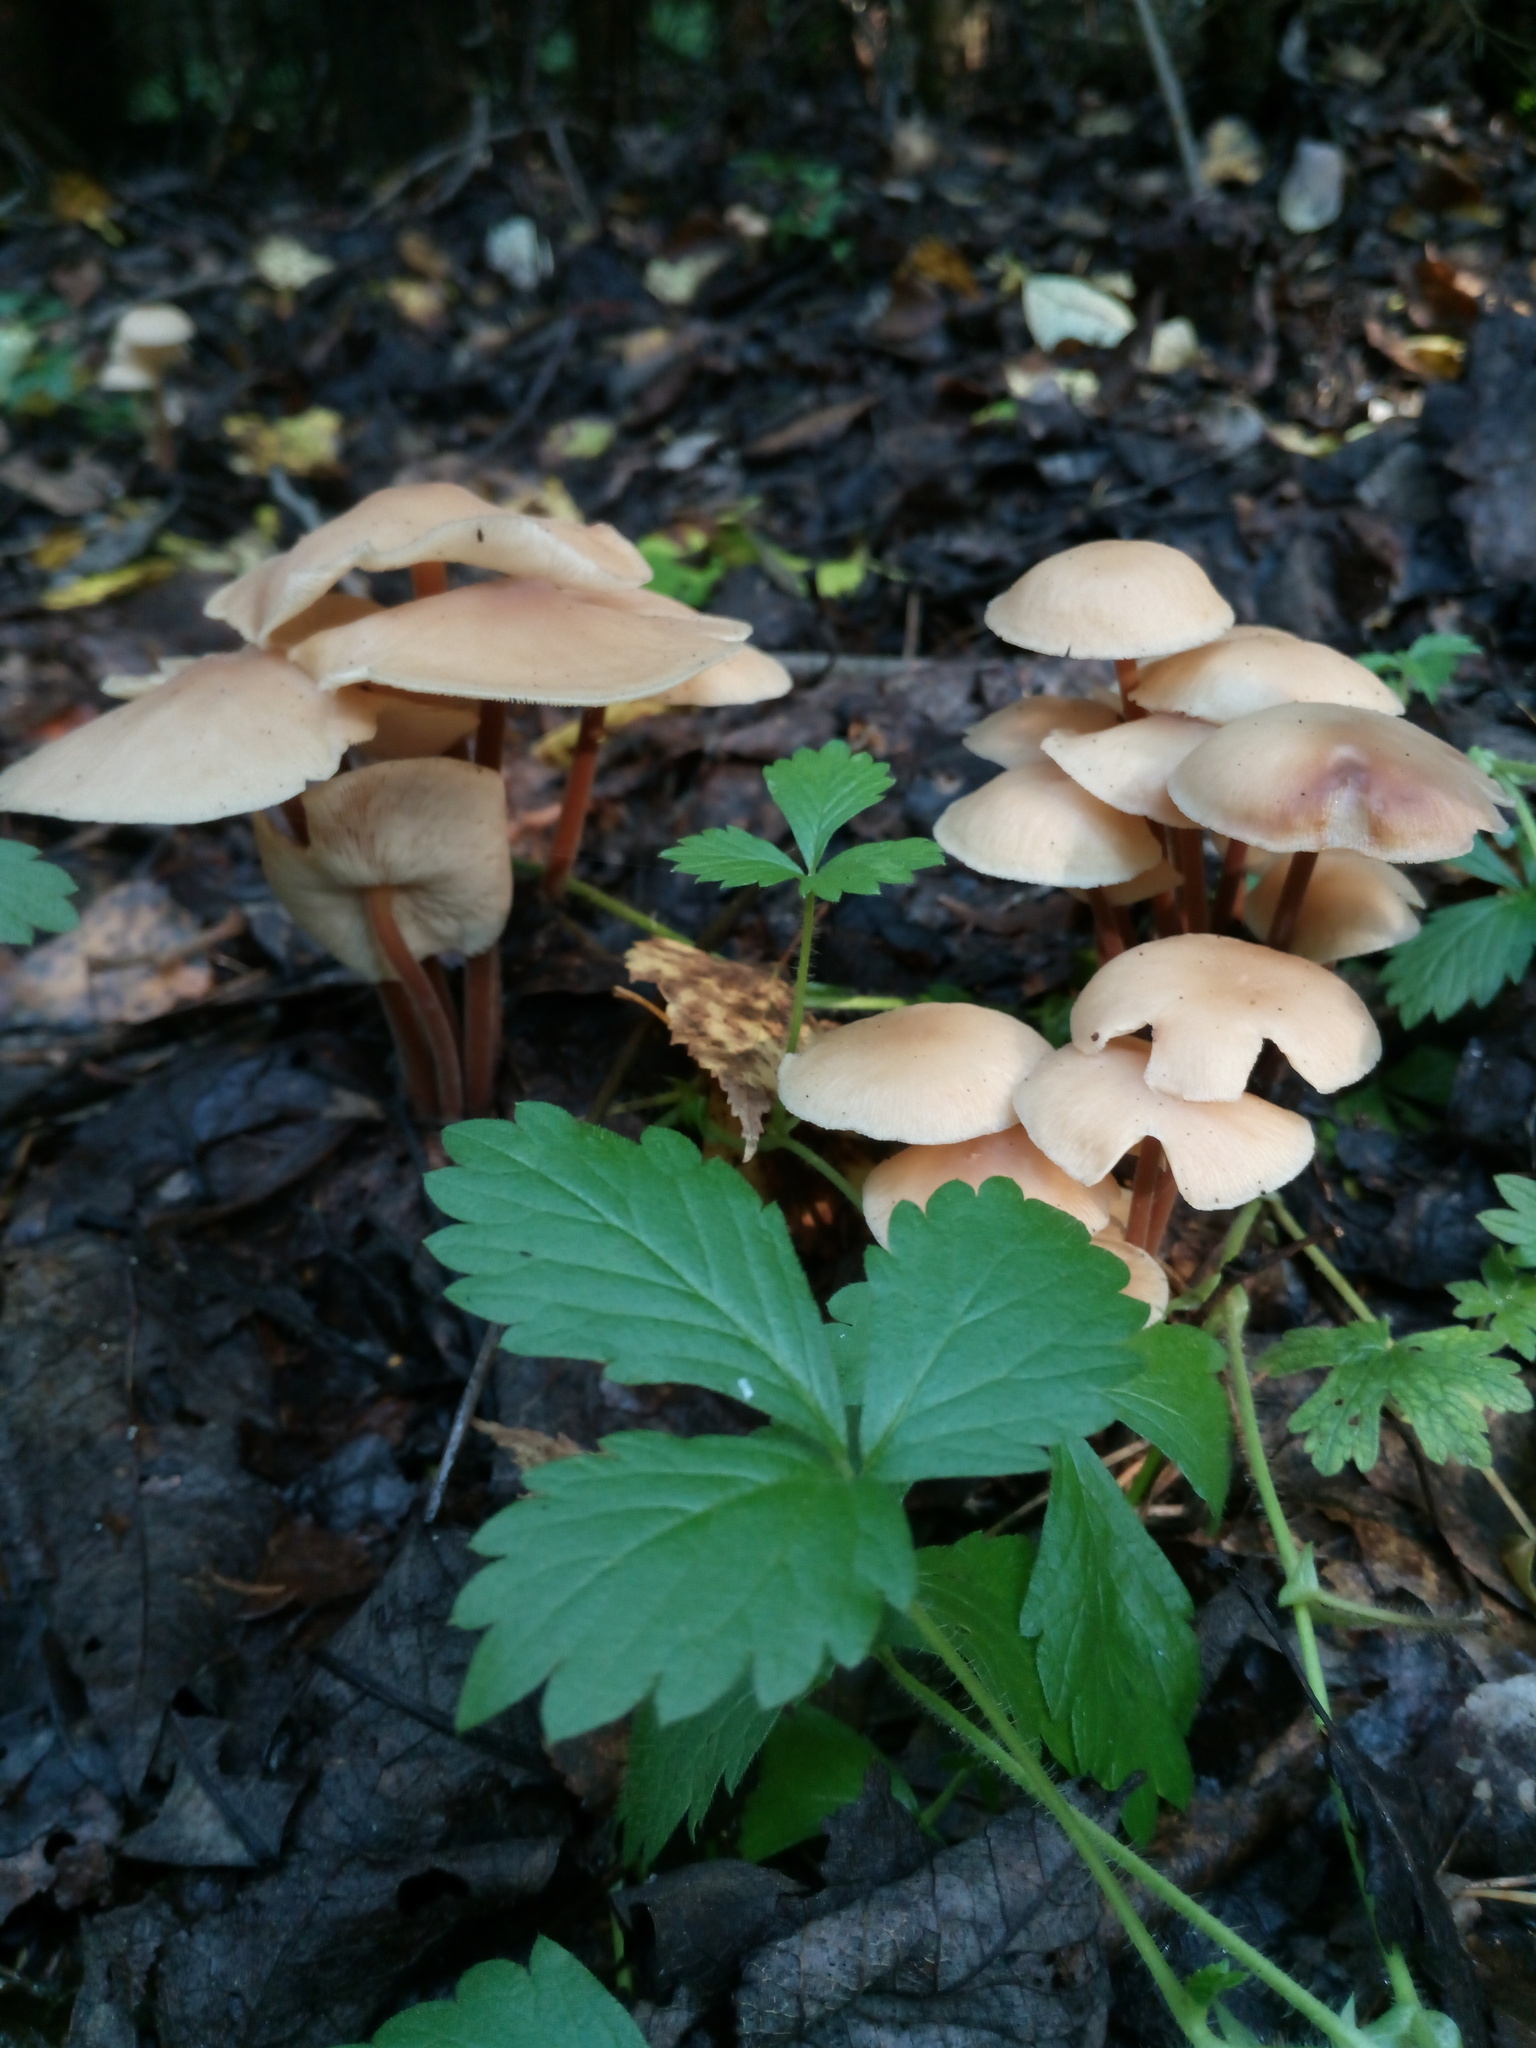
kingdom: Fungi
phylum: Basidiomycota
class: Agaricomycetes
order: Agaricales
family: Omphalotaceae
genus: Collybiopsis
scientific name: Collybiopsis confluens
